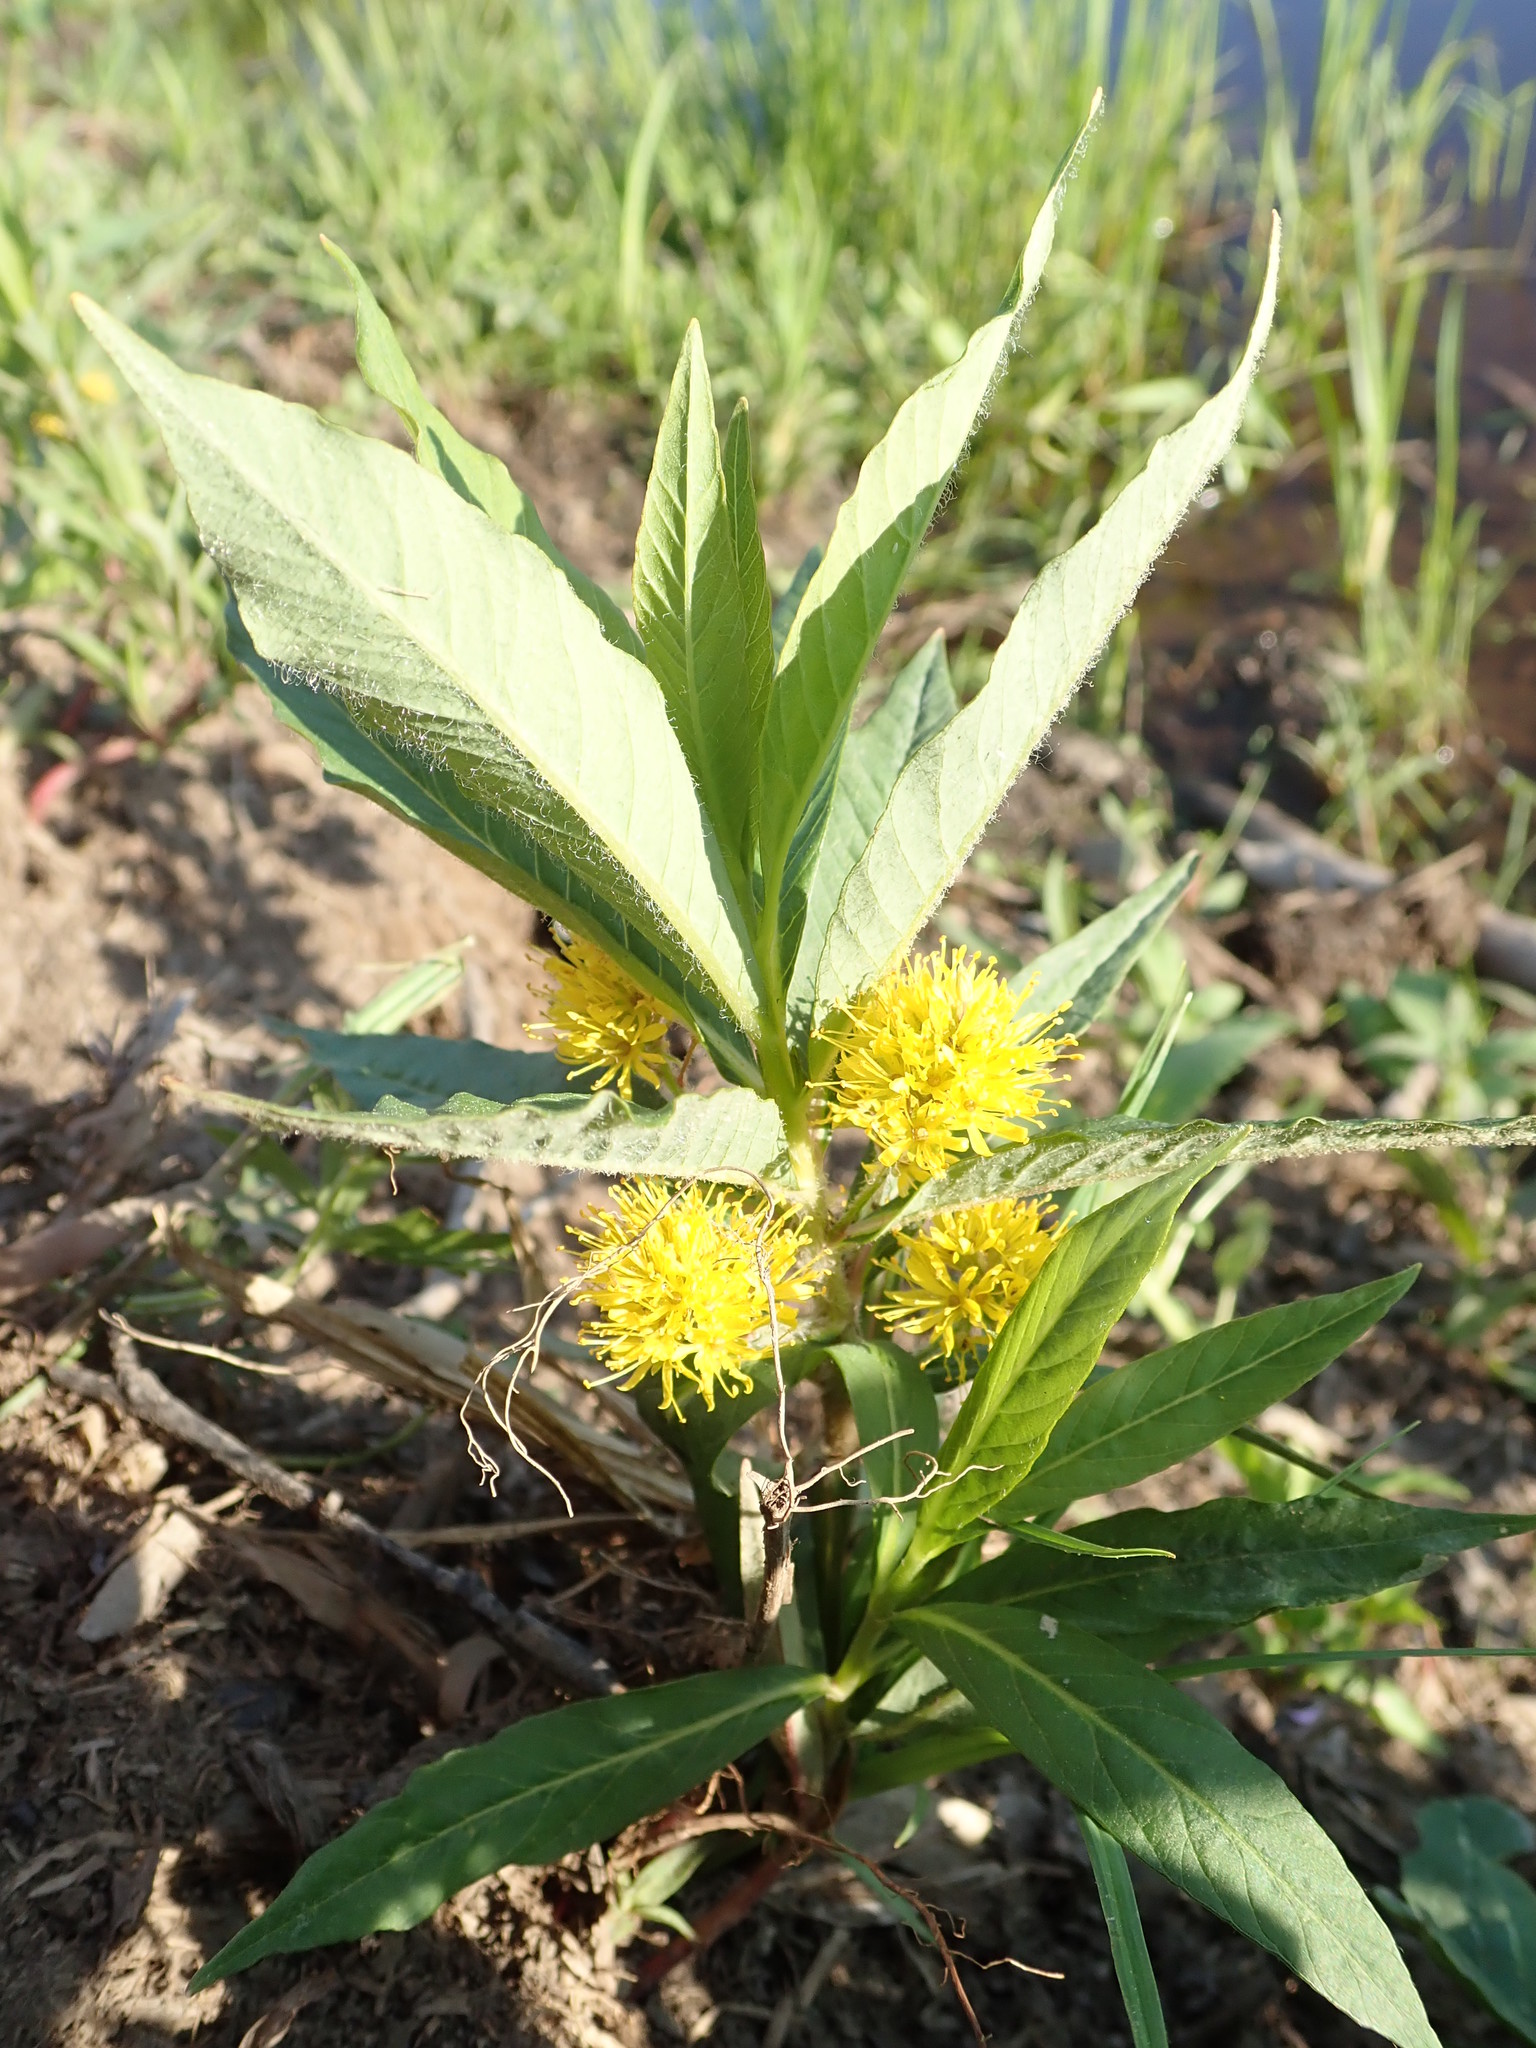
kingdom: Plantae
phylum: Tracheophyta
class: Magnoliopsida
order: Ericales
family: Primulaceae
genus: Lysimachia
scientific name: Lysimachia thyrsiflora
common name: Tufted loosestrife
